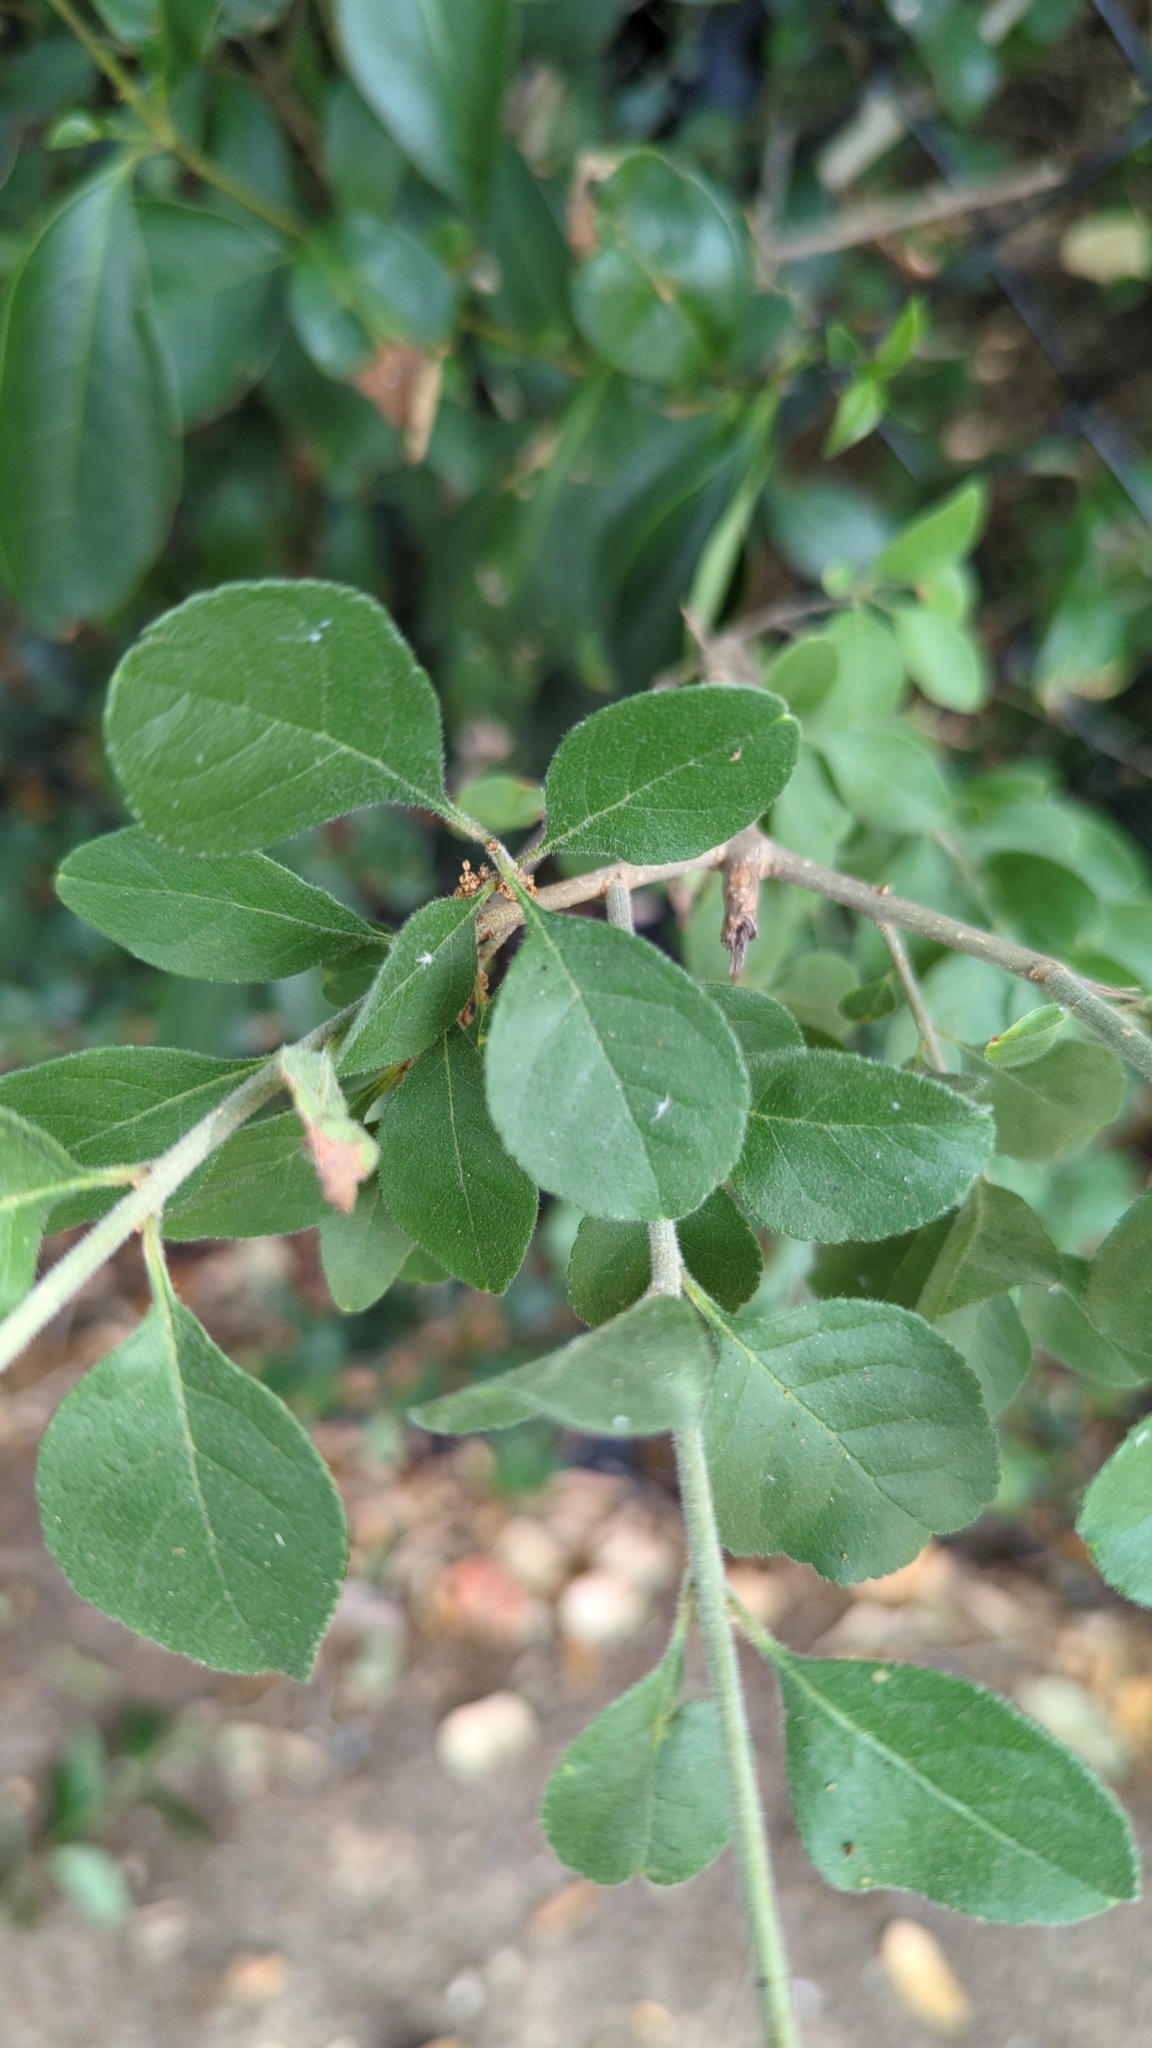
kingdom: Plantae
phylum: Tracheophyta
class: Magnoliopsida
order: Lamiales
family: Oleaceae
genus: Forestiera
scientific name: Forestiera pubescens
